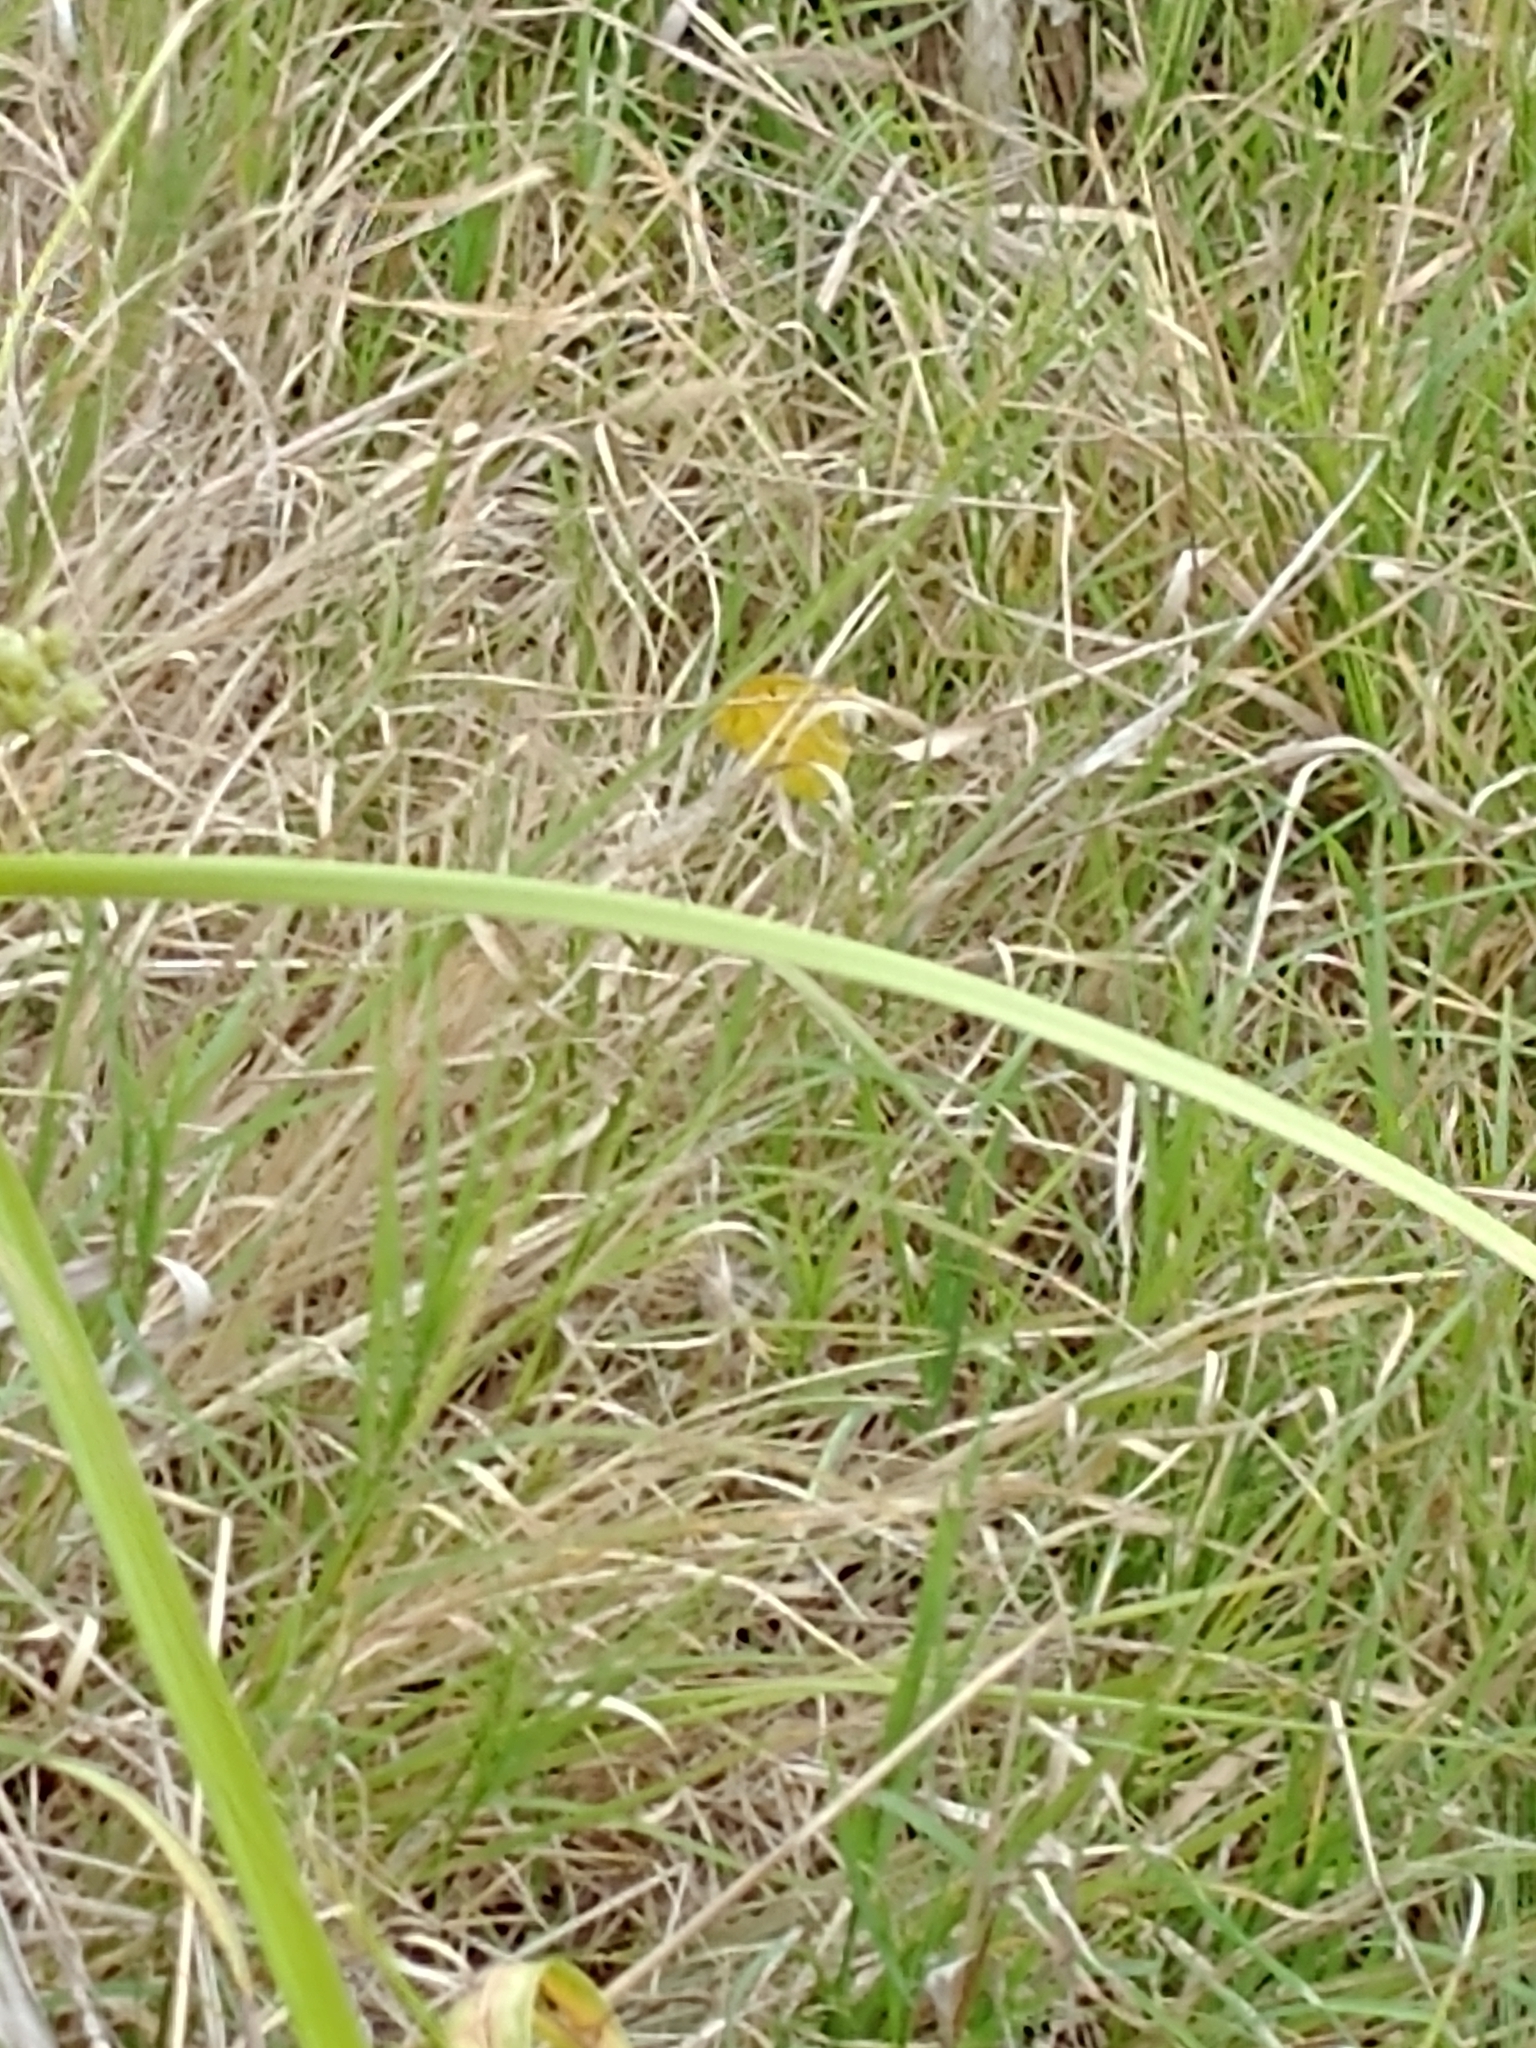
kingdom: Animalia
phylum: Arthropoda
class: Insecta
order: Lepidoptera
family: Pieridae
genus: Abaeis
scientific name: Abaeis nicippe
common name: Sleepy orange
